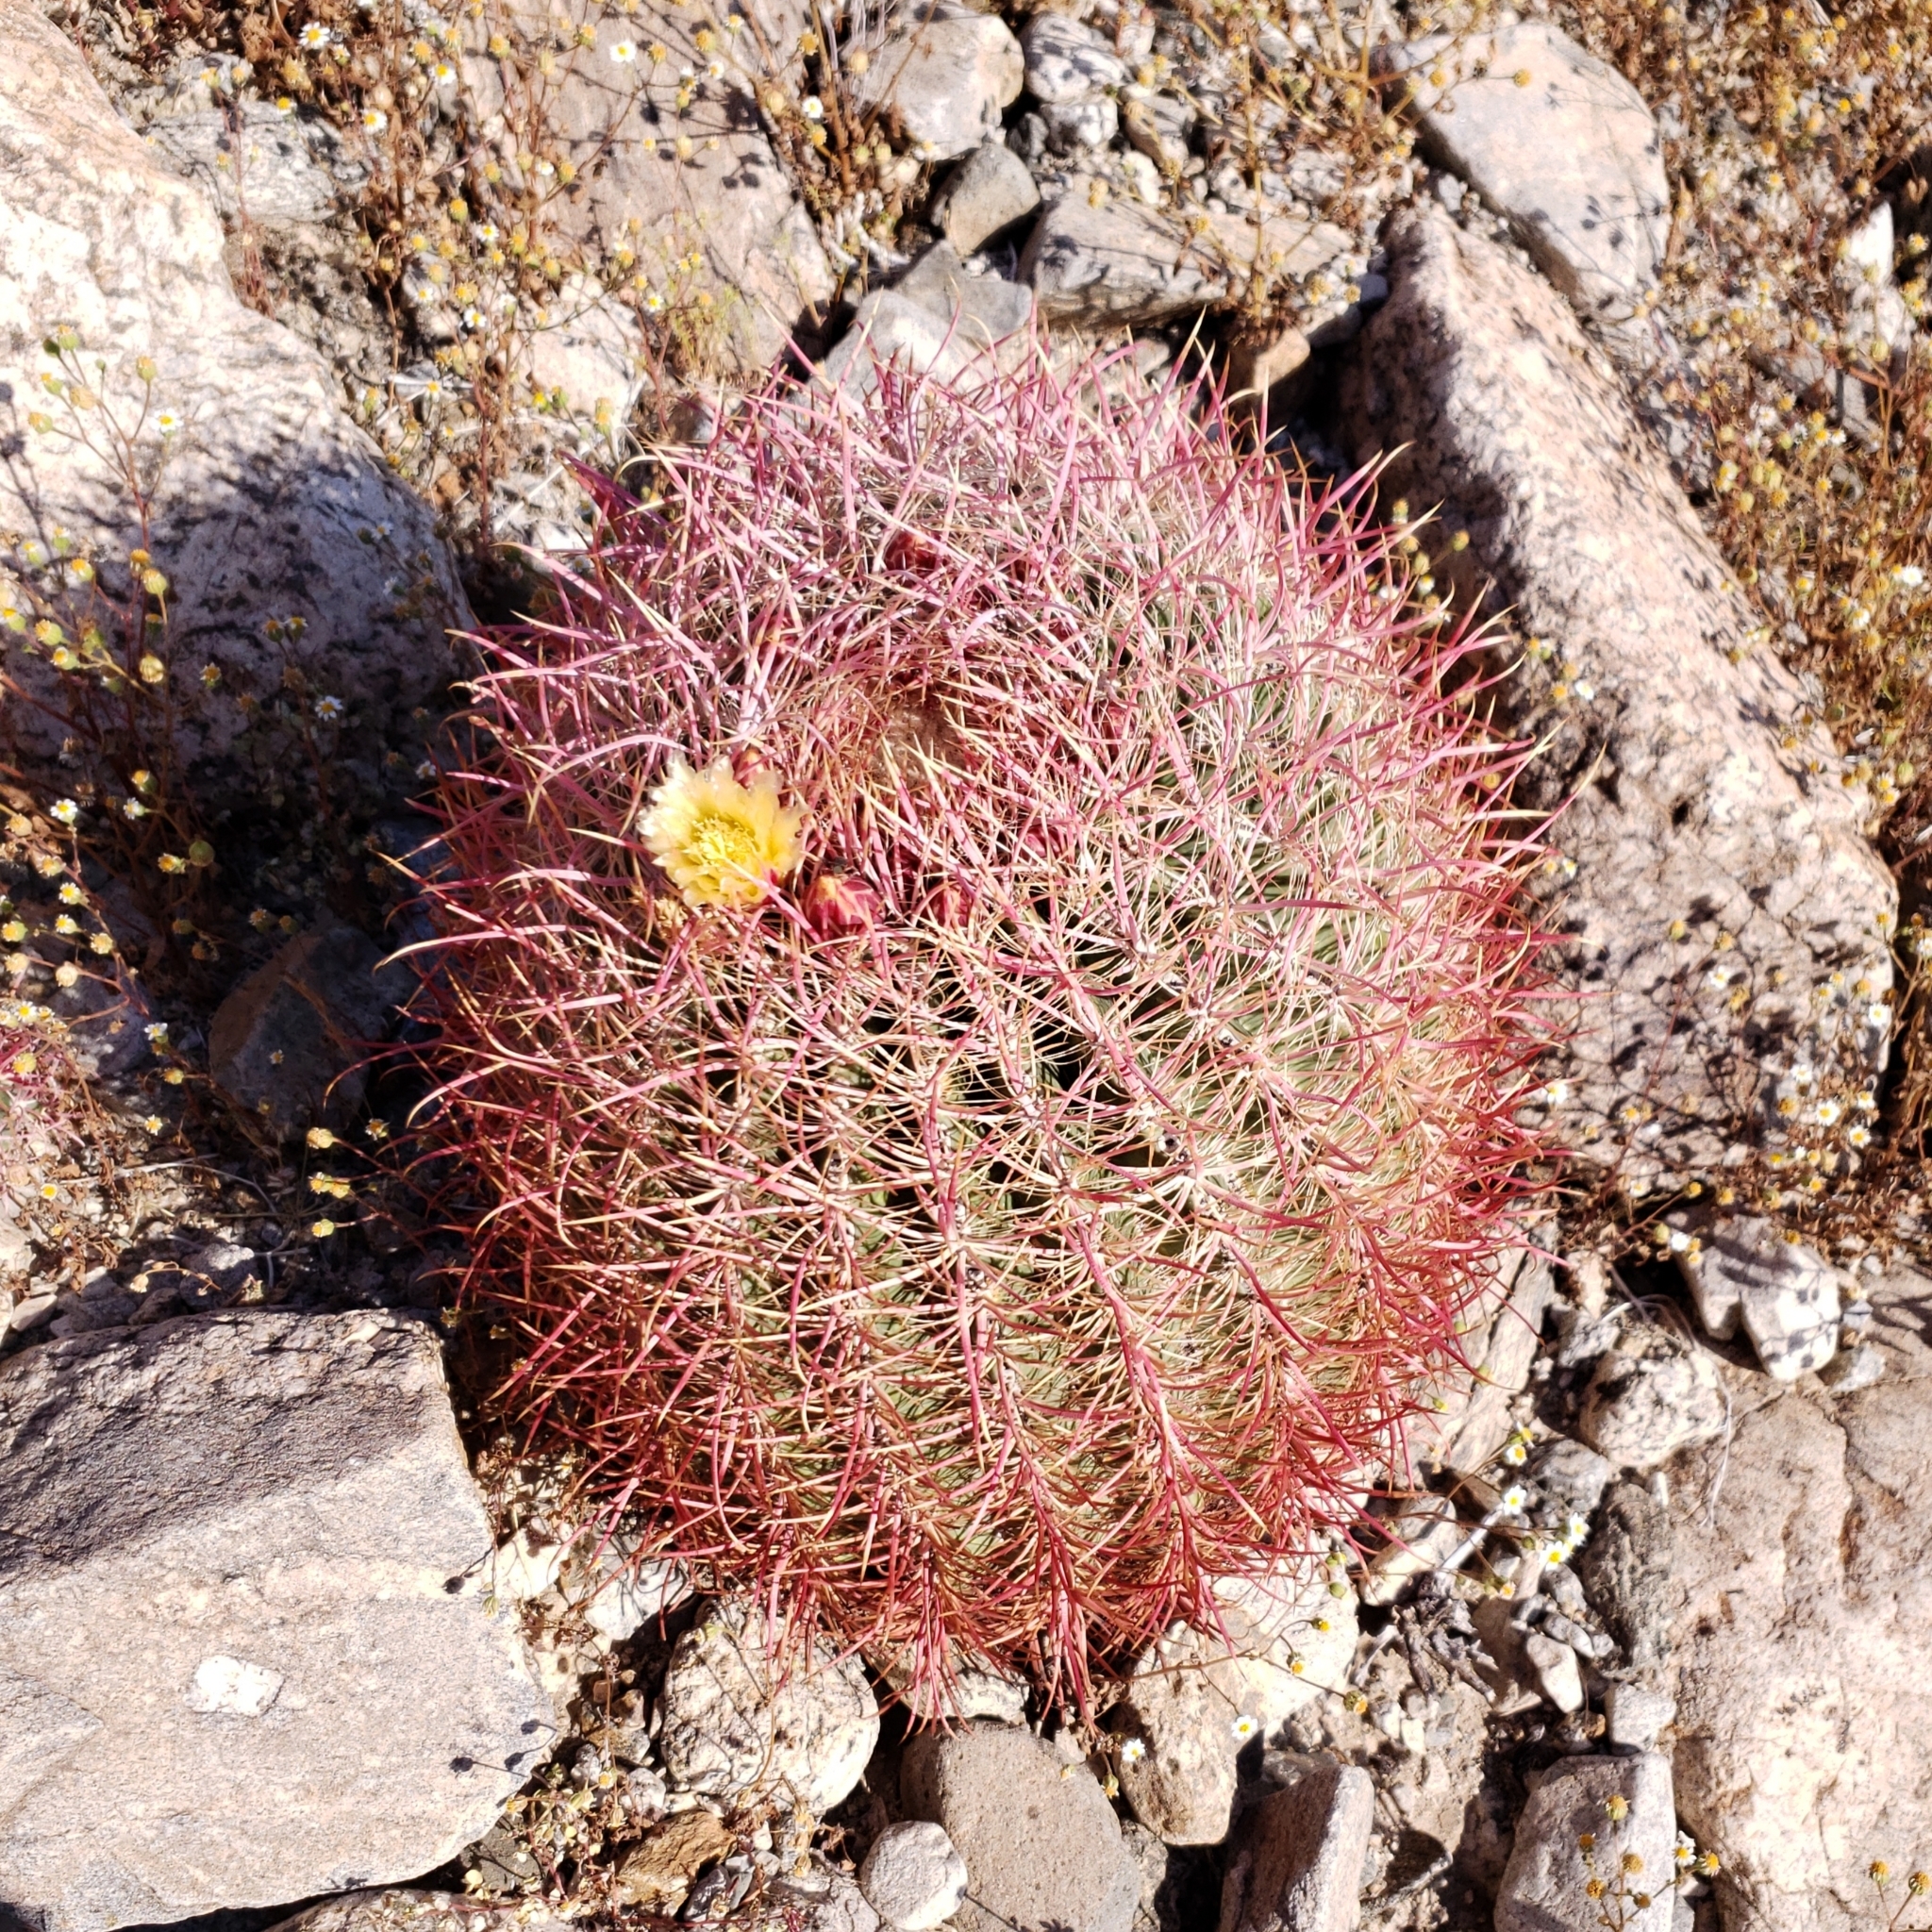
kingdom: Plantae
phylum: Tracheophyta
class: Magnoliopsida
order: Caryophyllales
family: Cactaceae
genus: Ferocactus
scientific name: Ferocactus cylindraceus
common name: California barrel cactus
